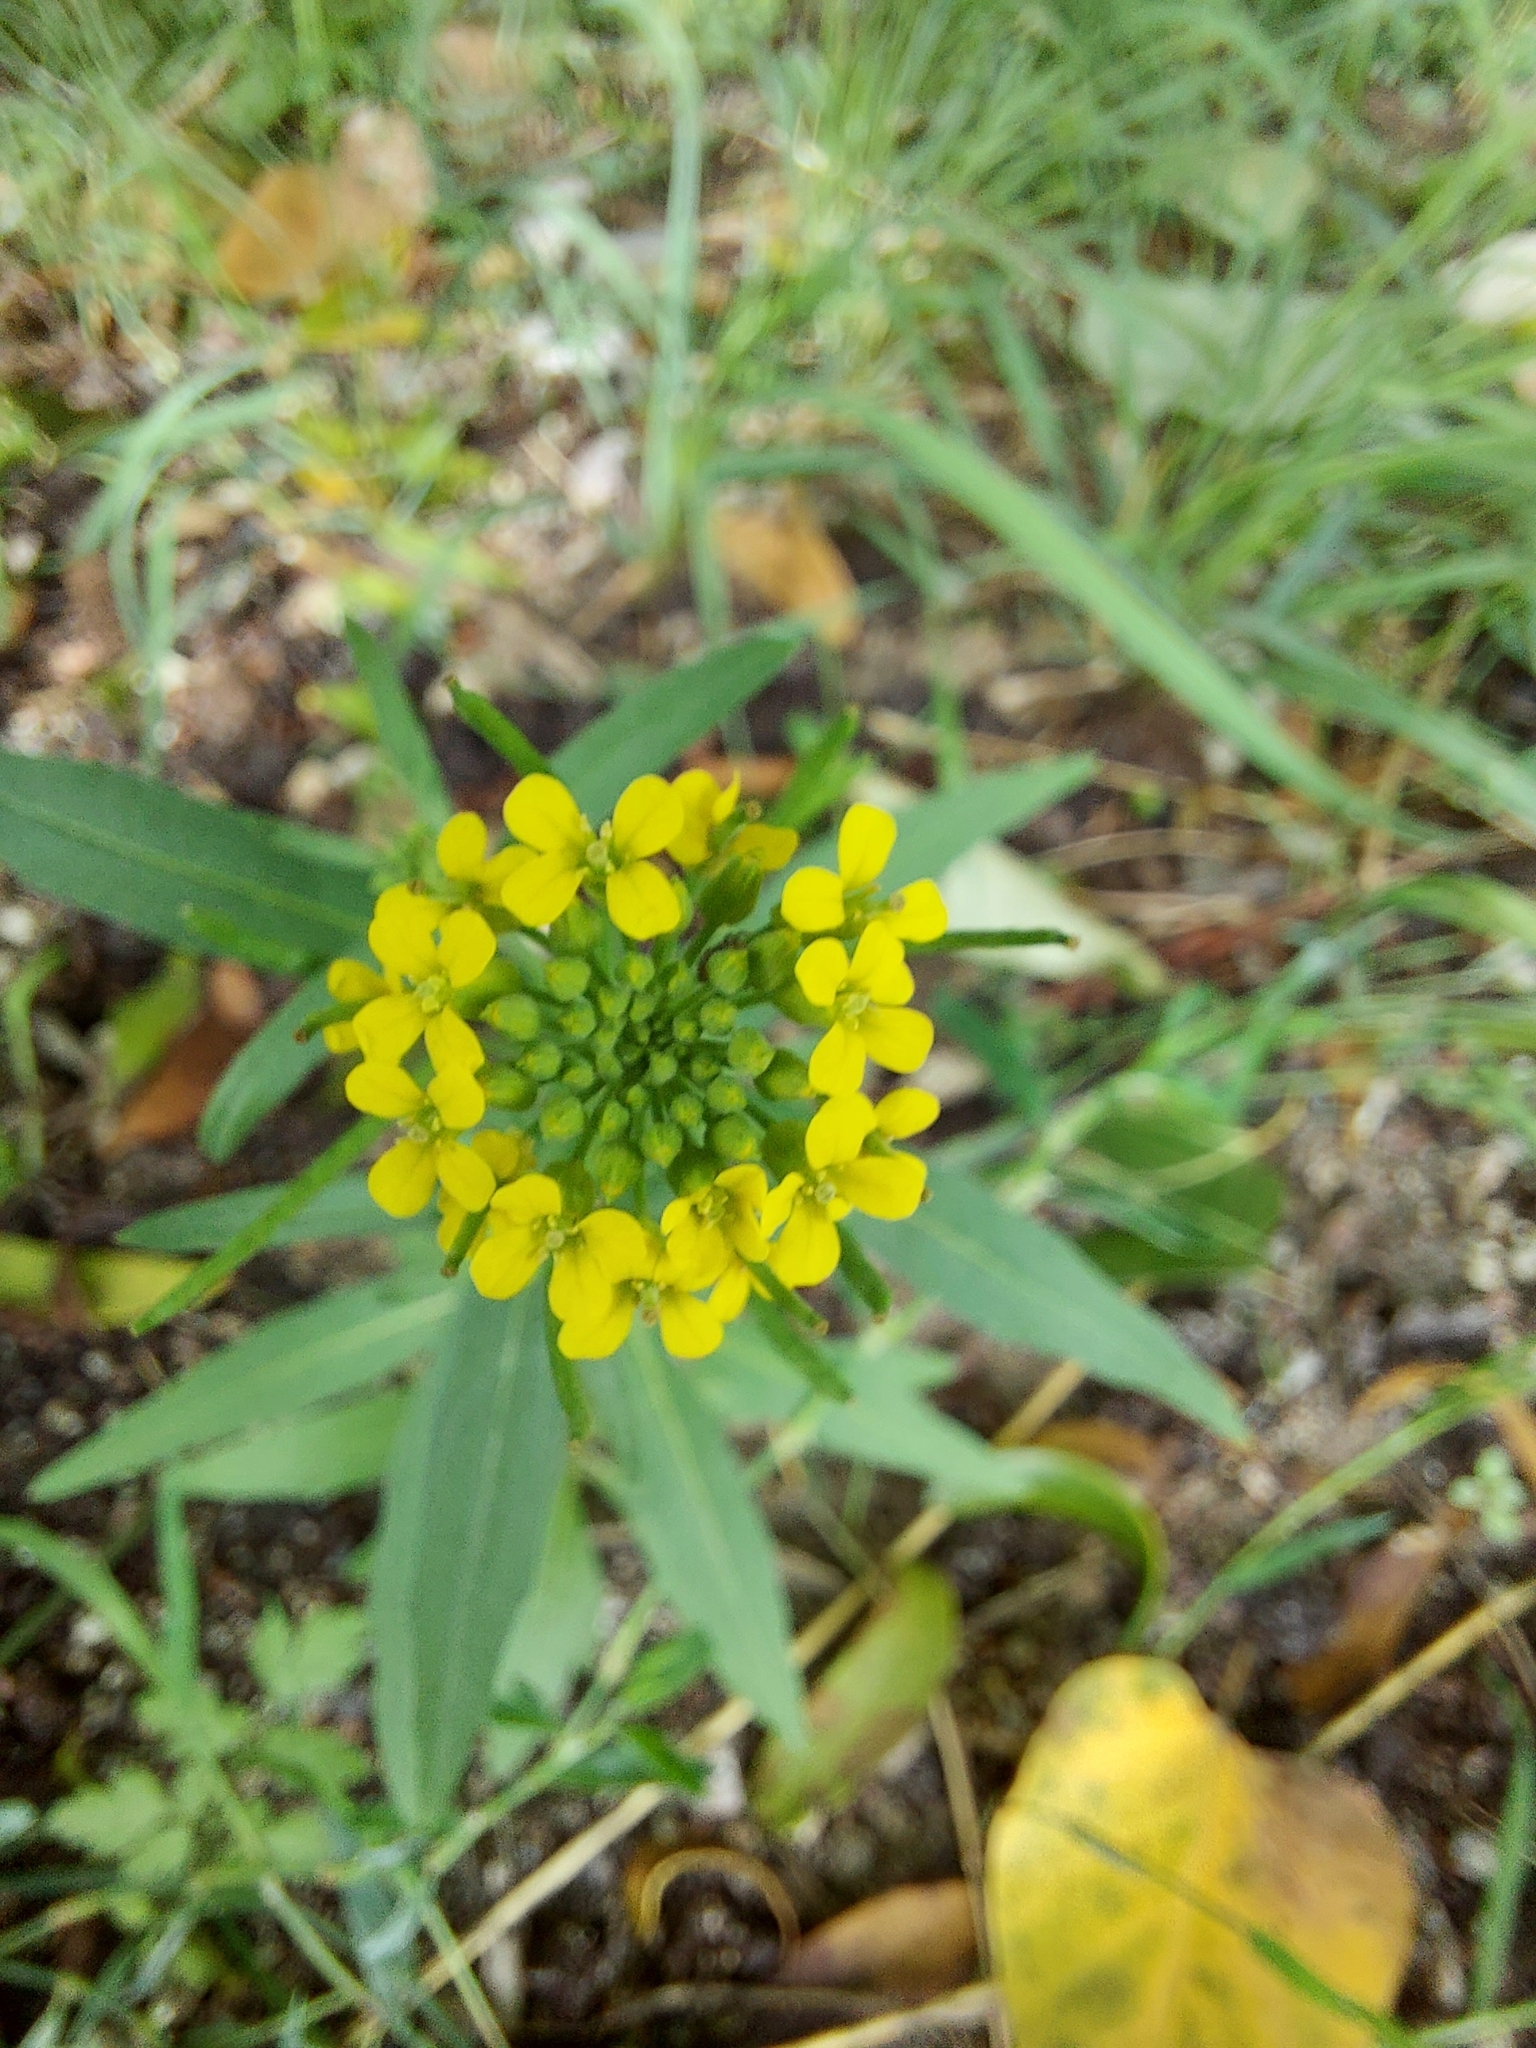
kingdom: Plantae
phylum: Tracheophyta
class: Magnoliopsida
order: Brassicales
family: Brassicaceae
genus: Erysimum
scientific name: Erysimum cheiranthoides
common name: Treacle mustard
